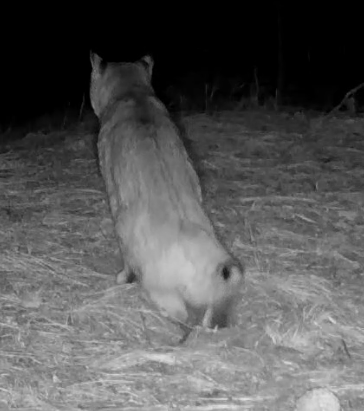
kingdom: Animalia
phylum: Chordata
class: Mammalia
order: Carnivora
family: Felidae
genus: Lynx
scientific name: Lynx rufus
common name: Bobcat
